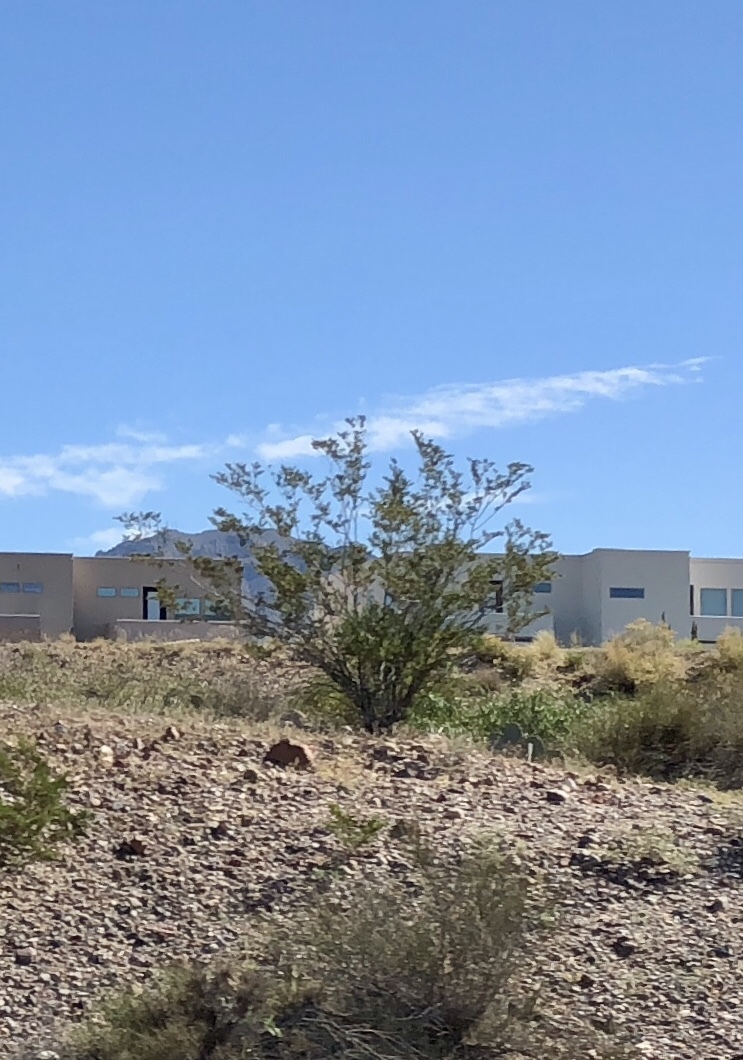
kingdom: Plantae
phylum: Tracheophyta
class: Magnoliopsida
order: Zygophyllales
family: Zygophyllaceae
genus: Larrea
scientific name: Larrea tridentata
